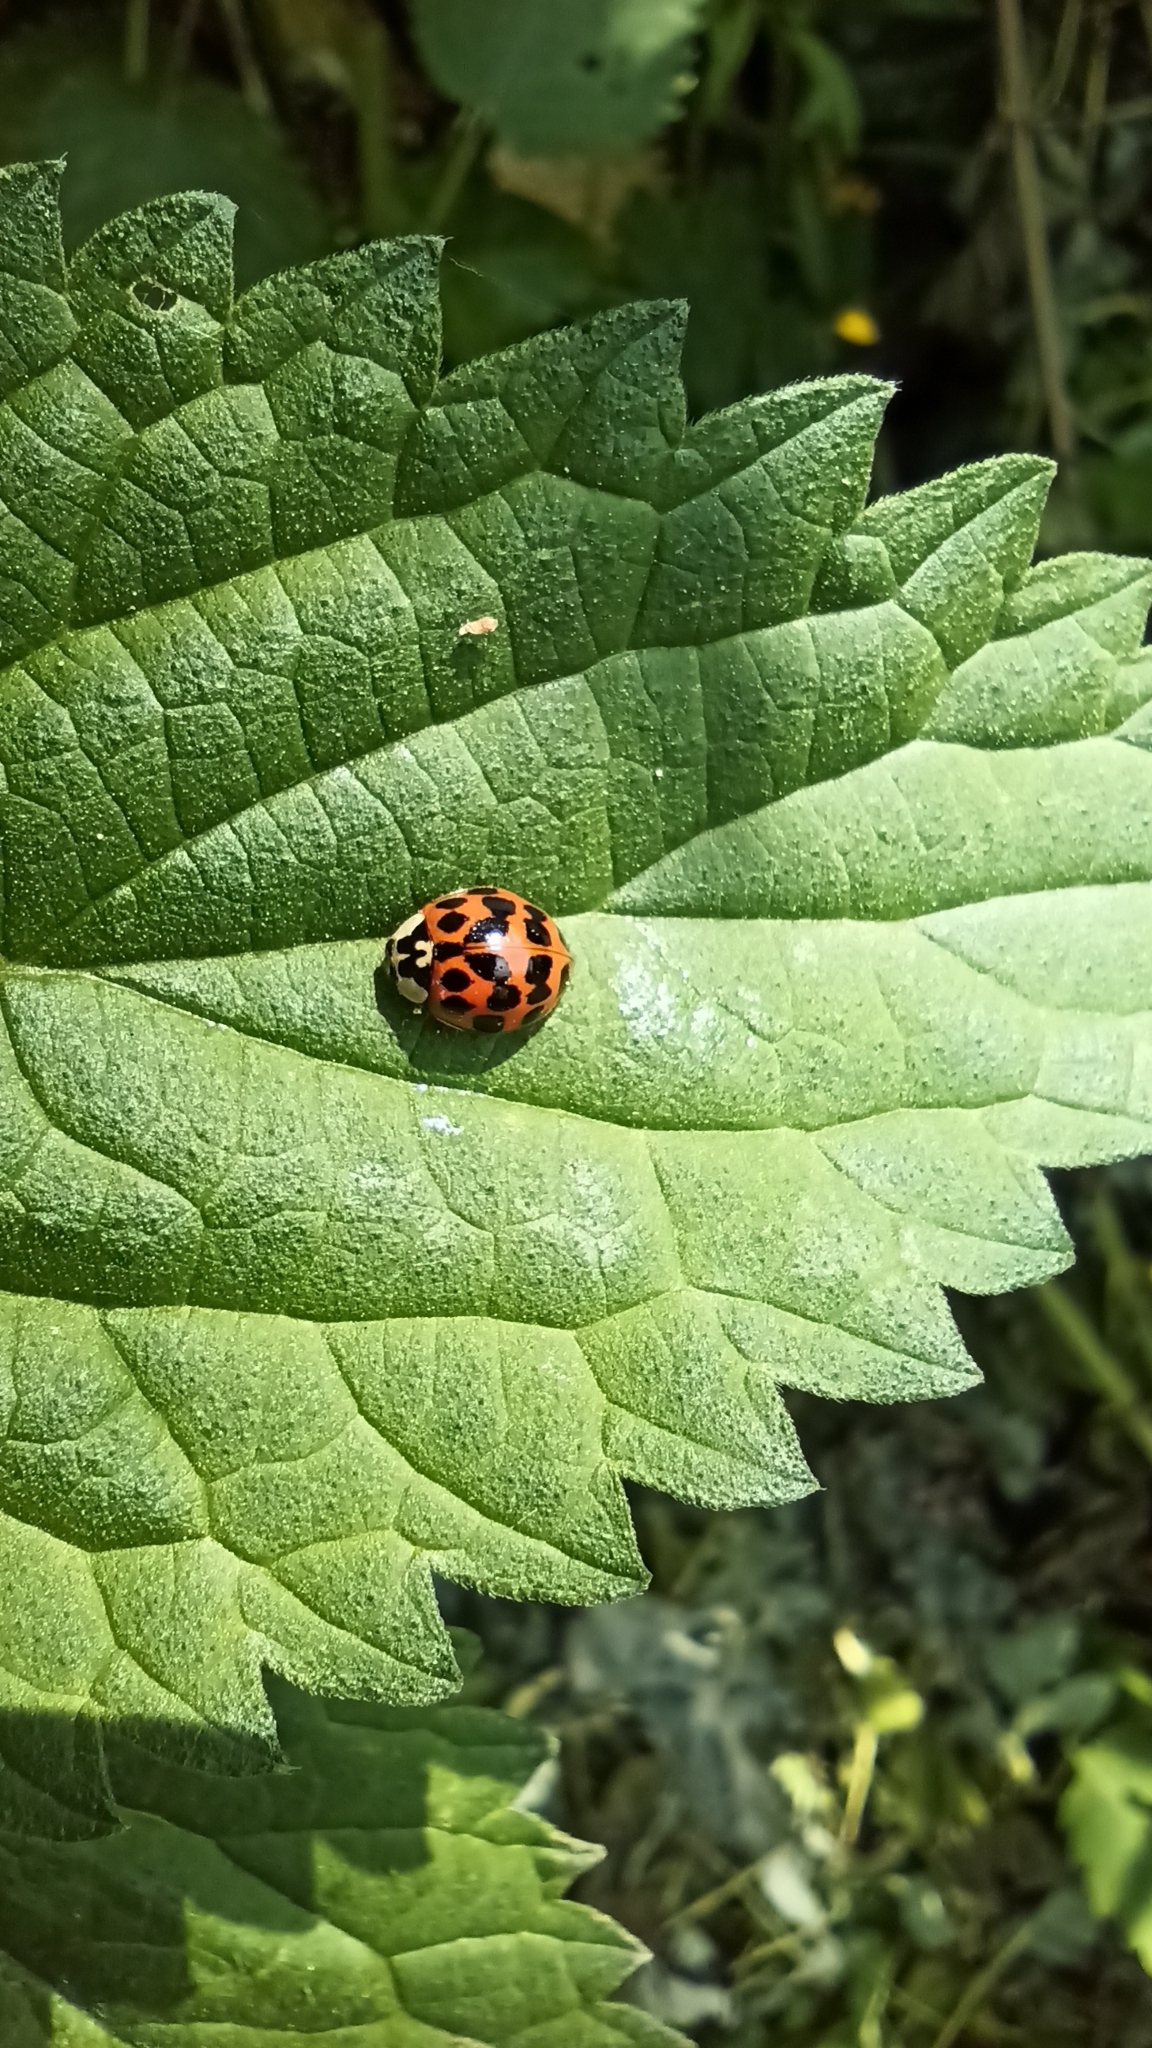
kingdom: Animalia
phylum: Arthropoda
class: Insecta
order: Coleoptera
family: Coccinellidae
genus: Harmonia
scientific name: Harmonia axyridis
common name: Harlequin ladybird
